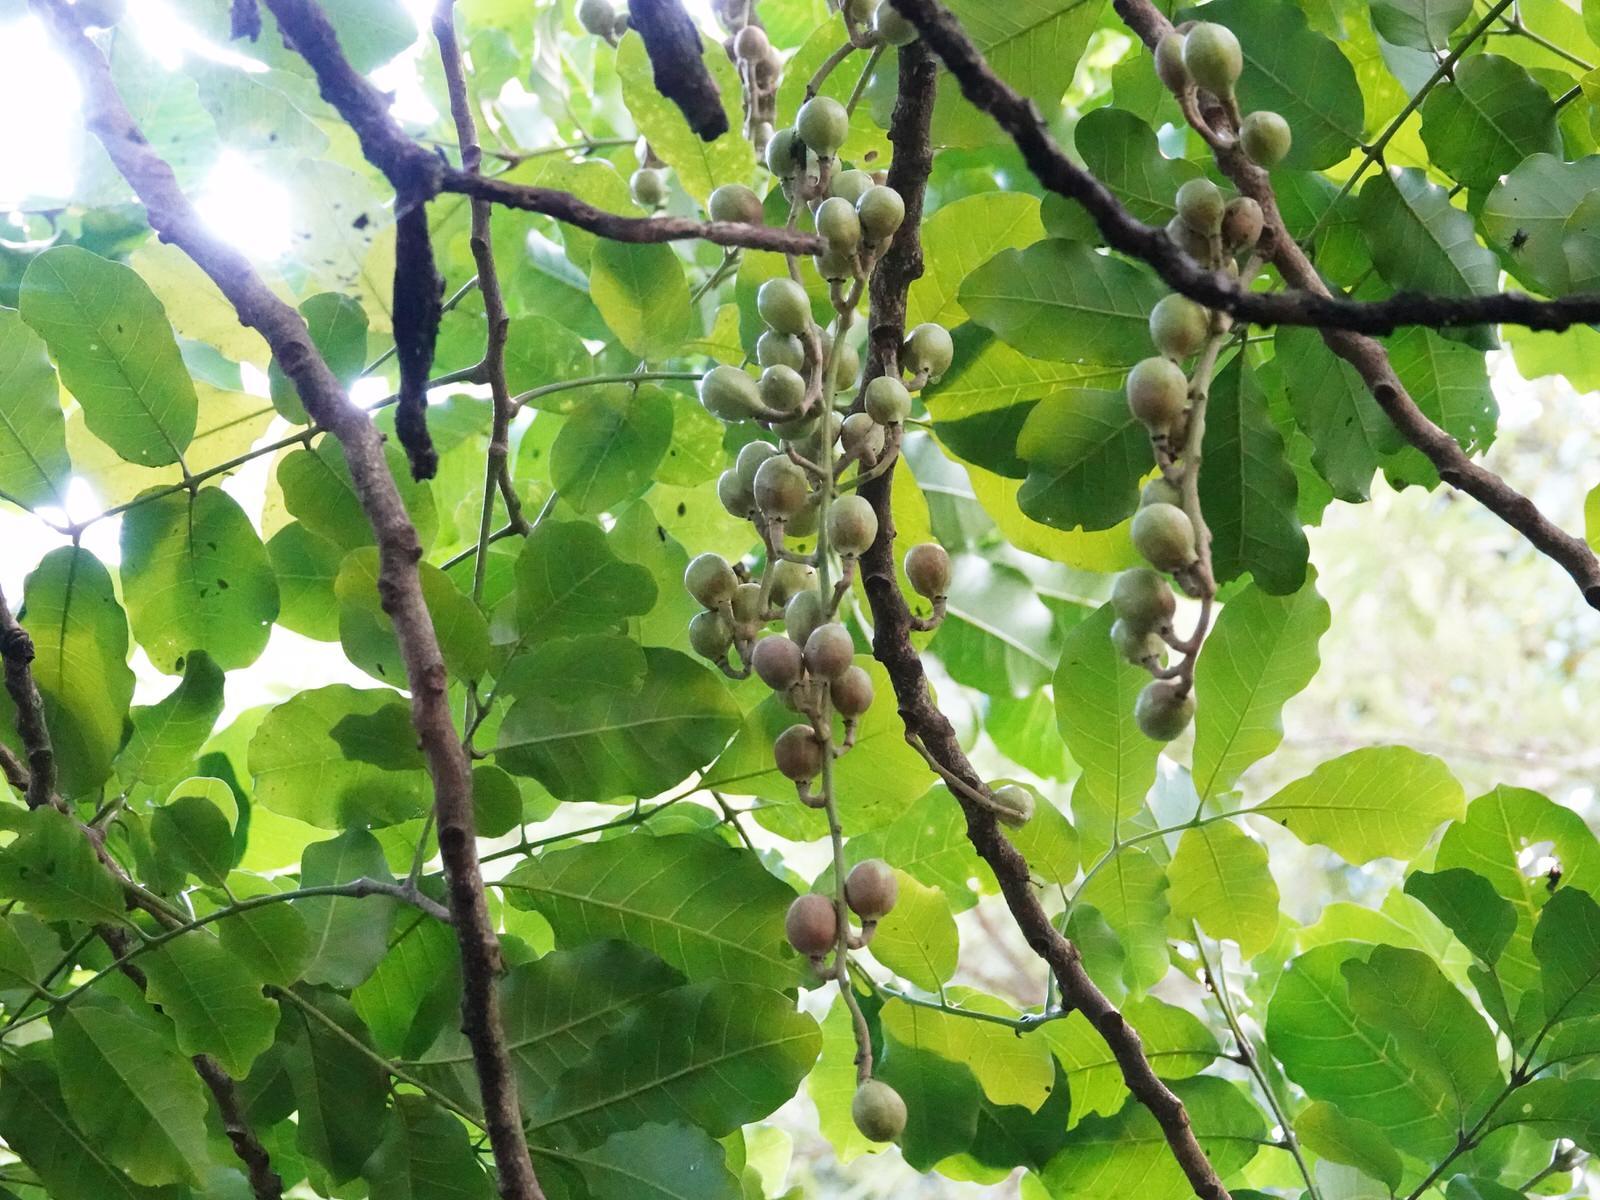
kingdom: Plantae
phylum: Tracheophyta
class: Magnoliopsida
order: Sapindales
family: Meliaceae
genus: Didymocheton
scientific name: Didymocheton spectabilis
